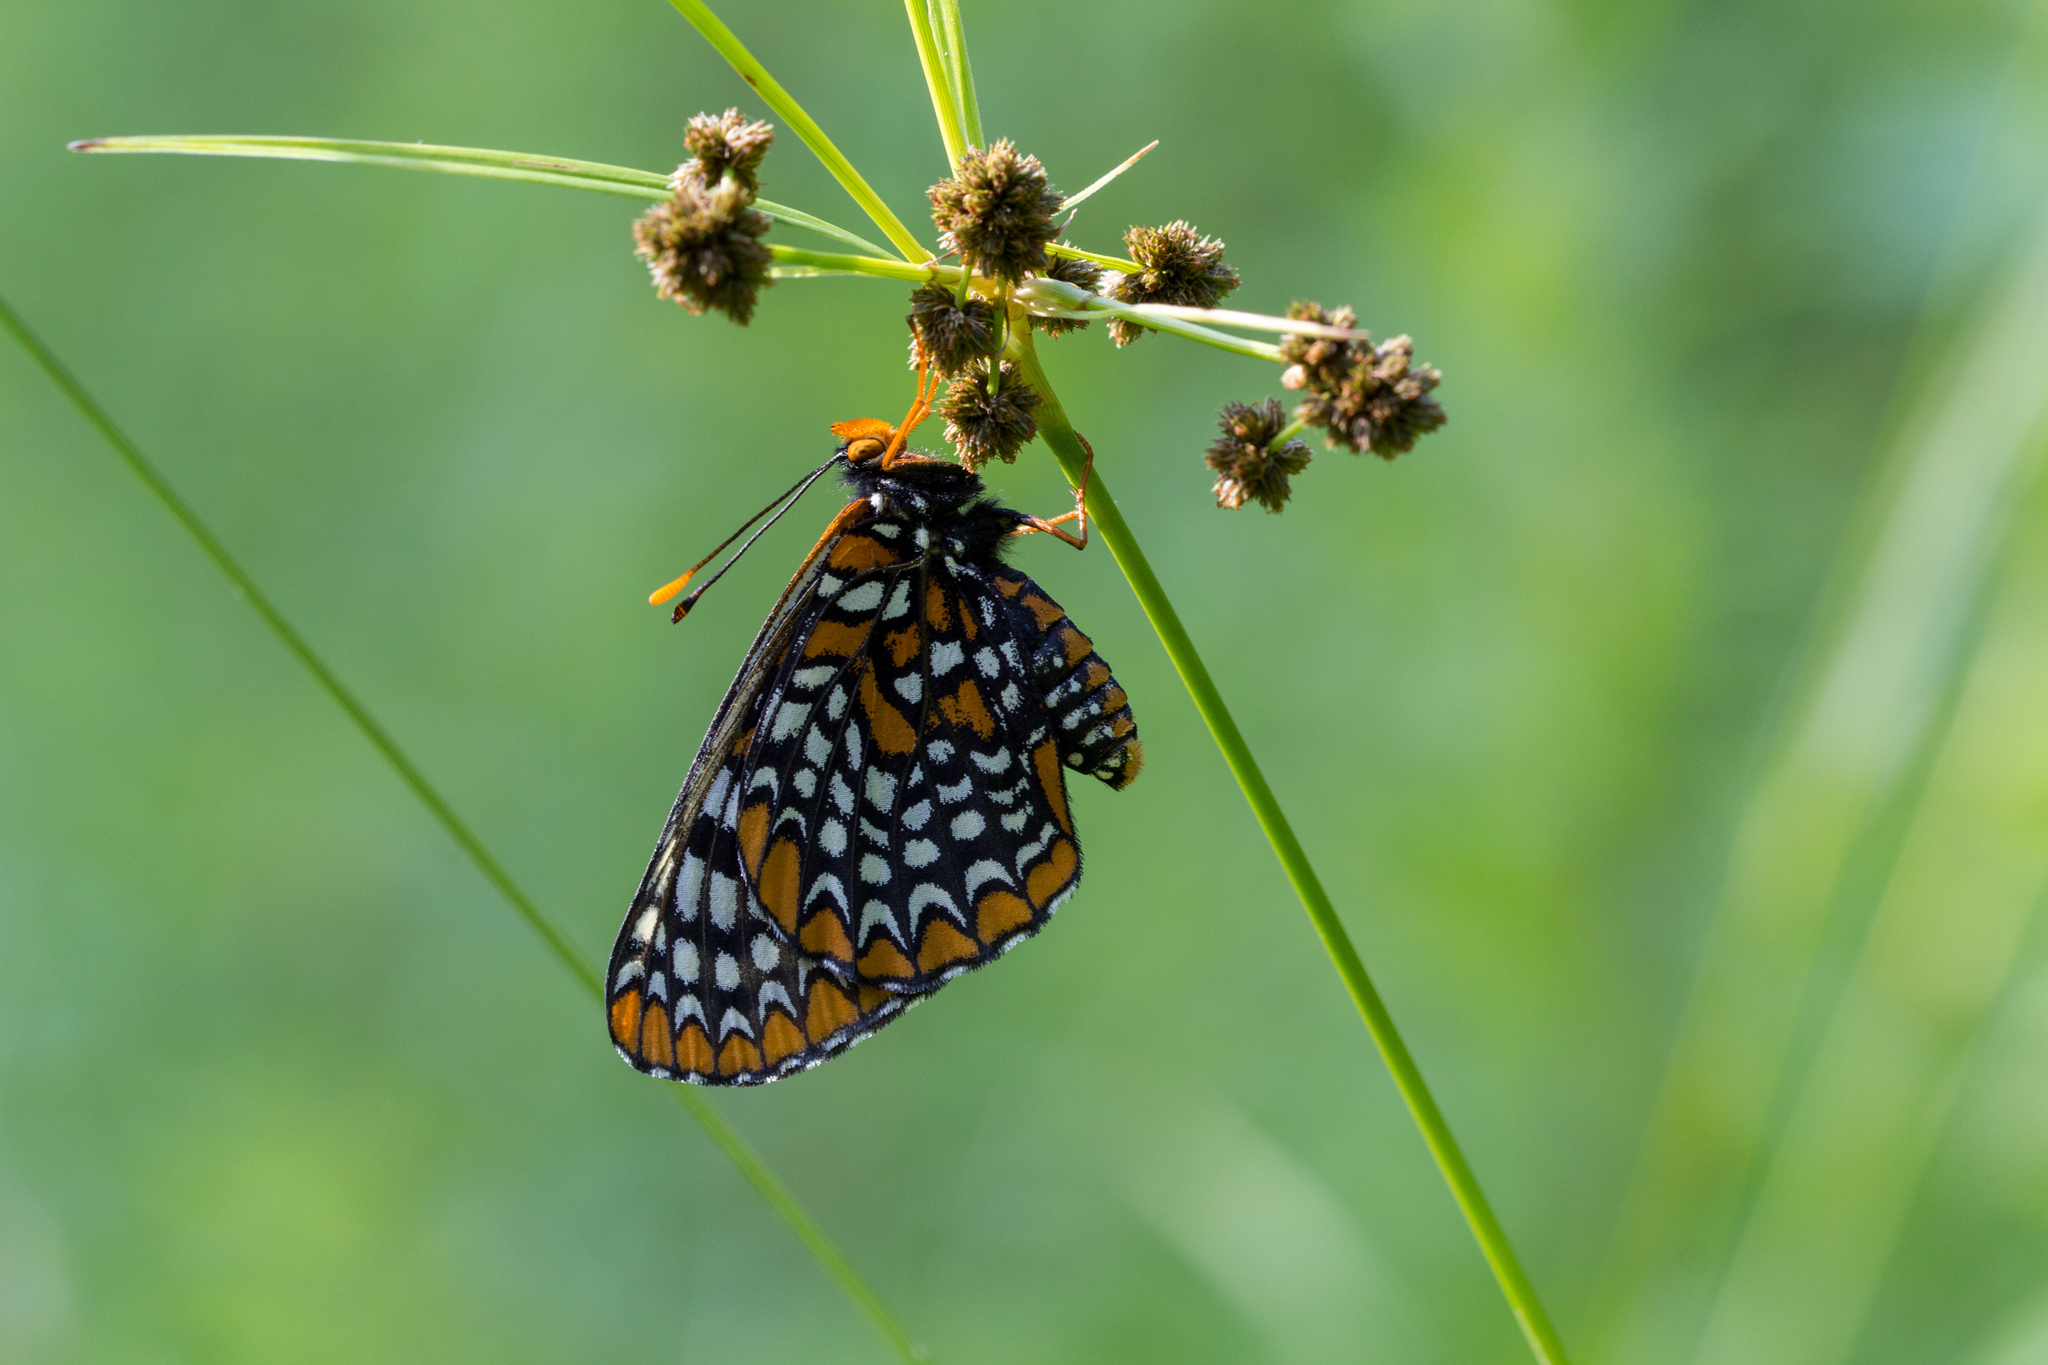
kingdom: Animalia
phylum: Arthropoda
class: Insecta
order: Lepidoptera
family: Nymphalidae
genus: Euphydryas
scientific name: Euphydryas phaeton
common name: Baltimore checkerspot
